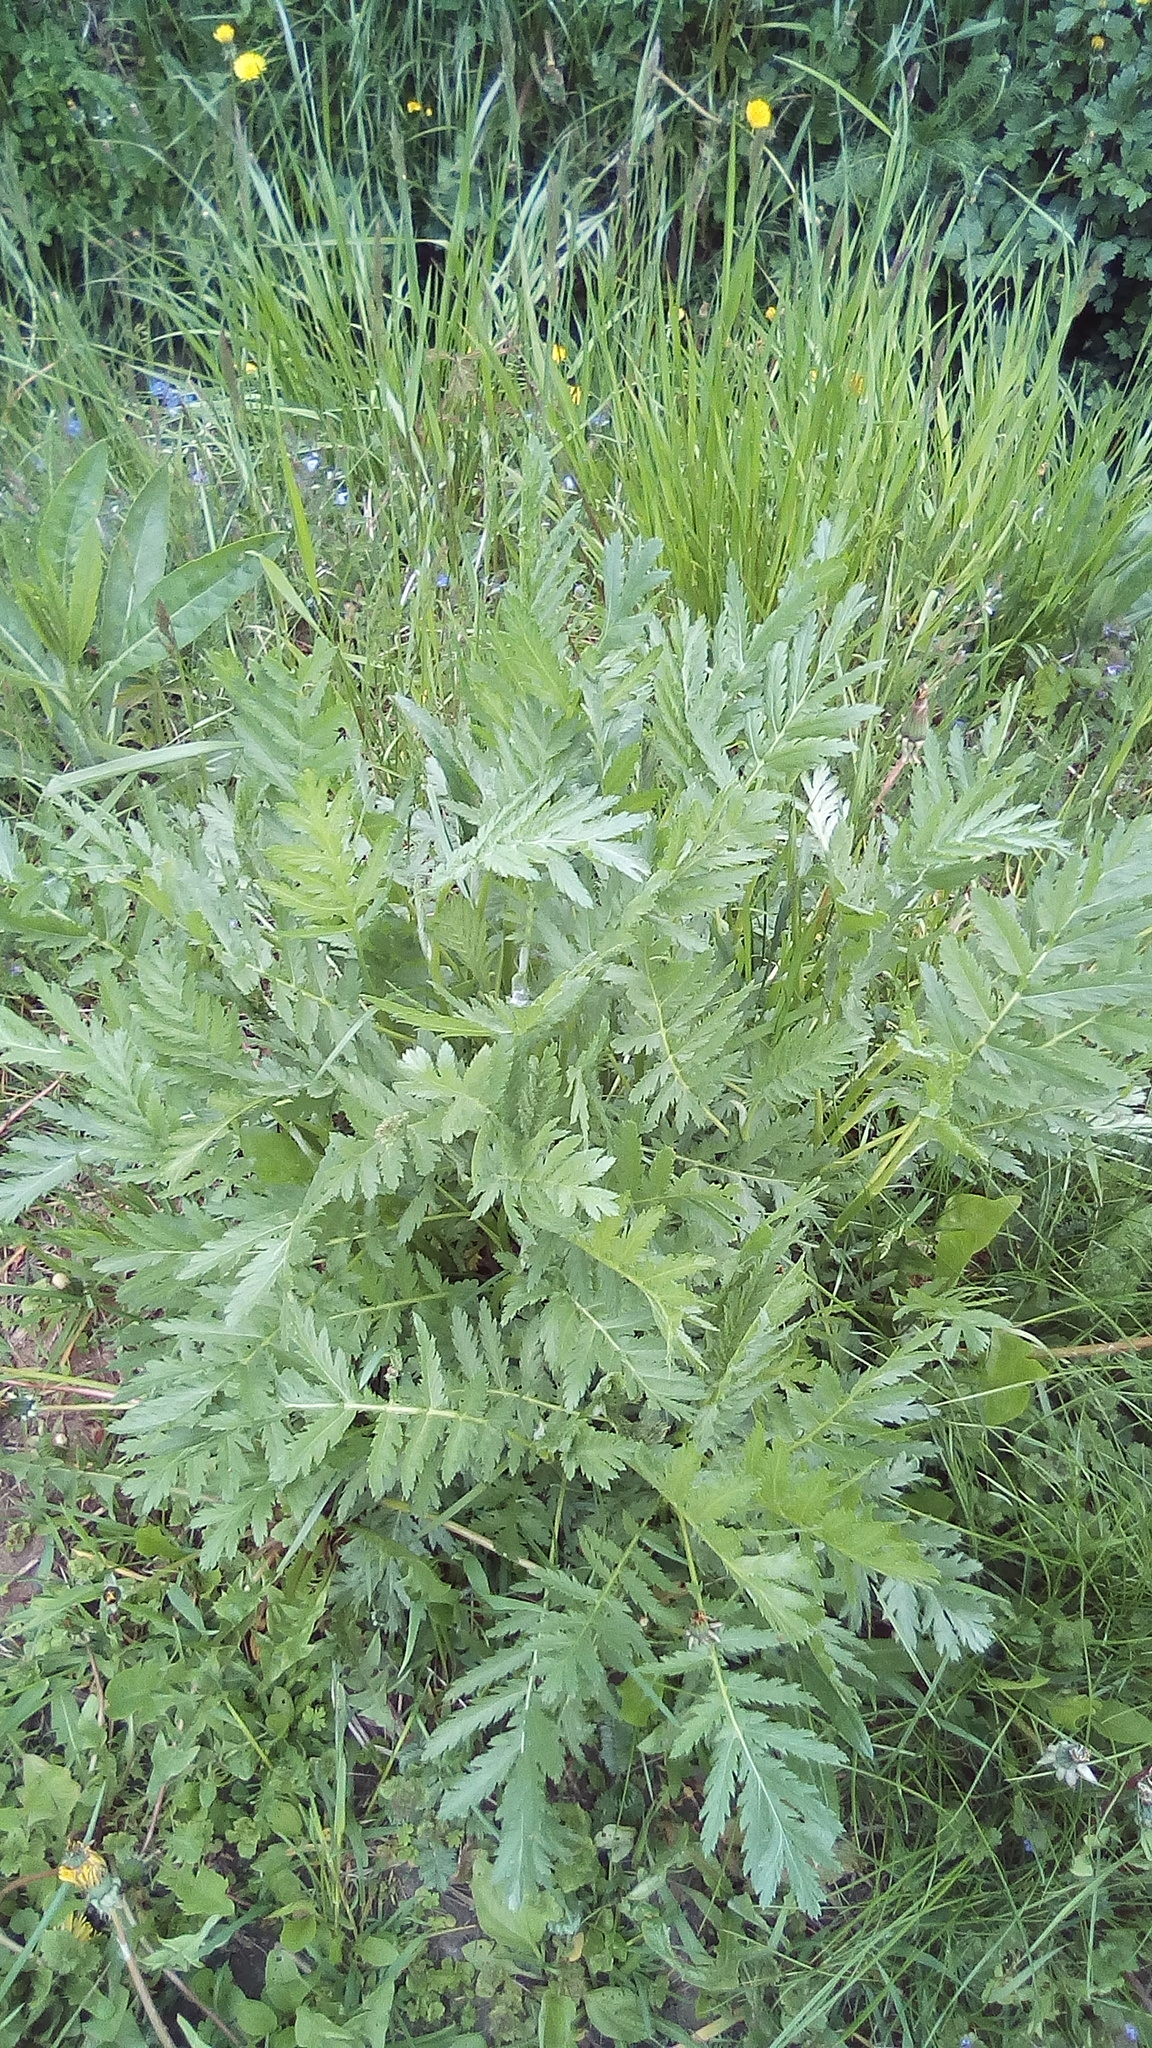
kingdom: Plantae
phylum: Tracheophyta
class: Magnoliopsida
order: Asterales
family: Asteraceae
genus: Tanacetum
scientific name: Tanacetum vulgare
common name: Common tansy
